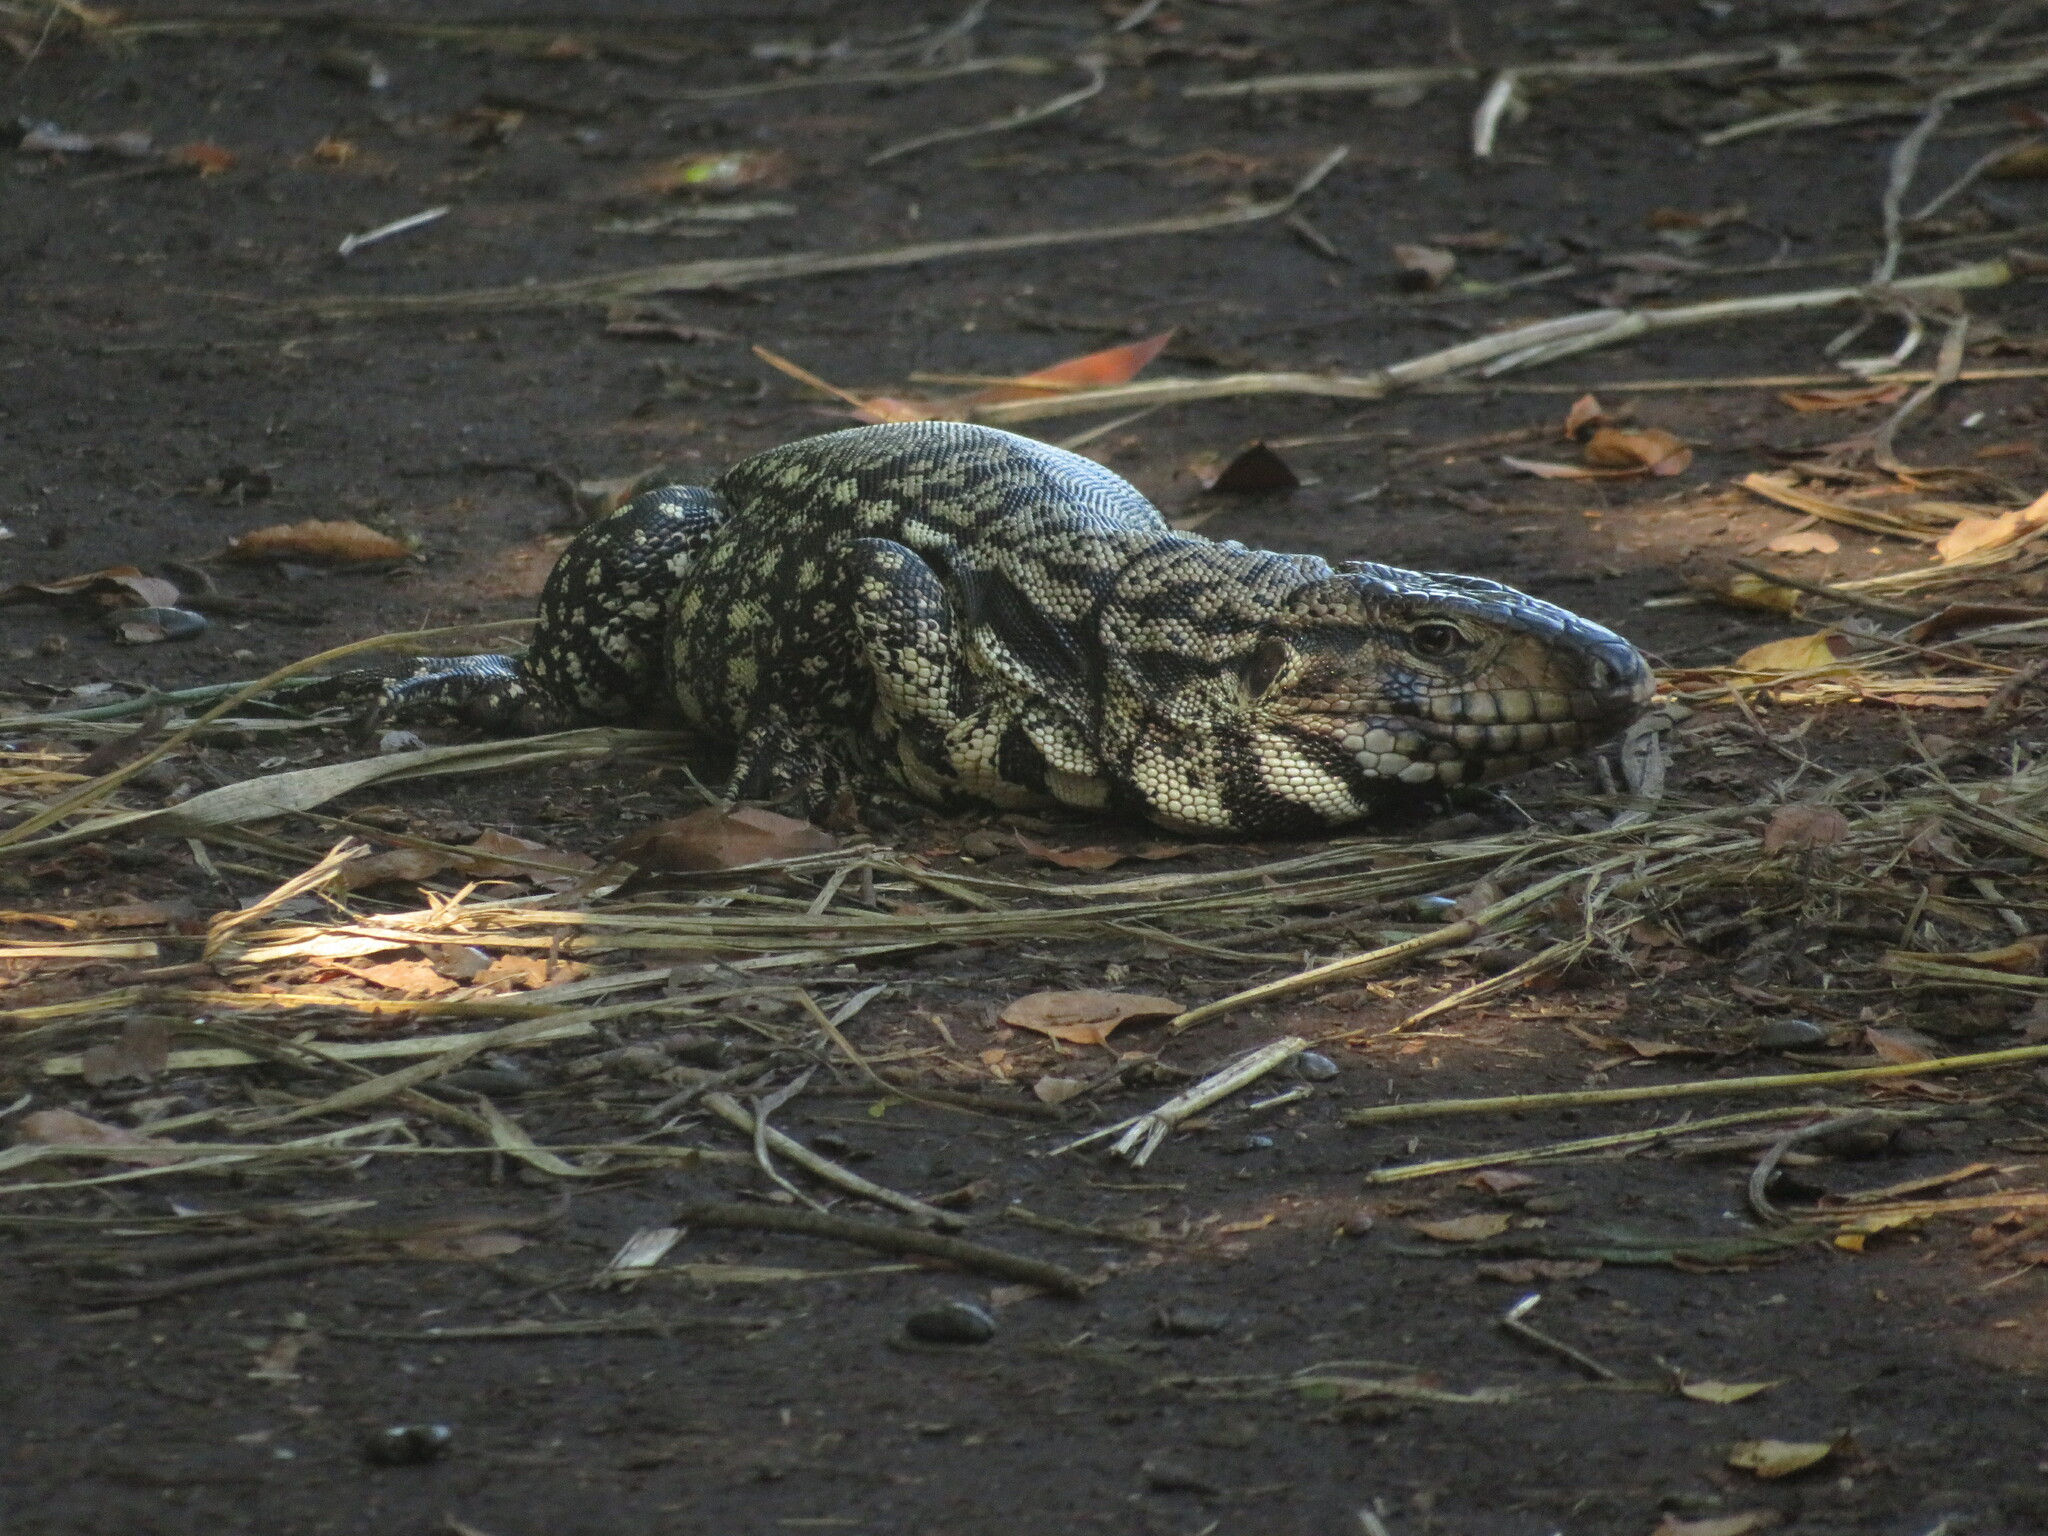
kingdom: Animalia
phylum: Chordata
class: Squamata
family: Teiidae
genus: Salvator
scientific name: Salvator merianae
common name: Argentine black and white tegu
